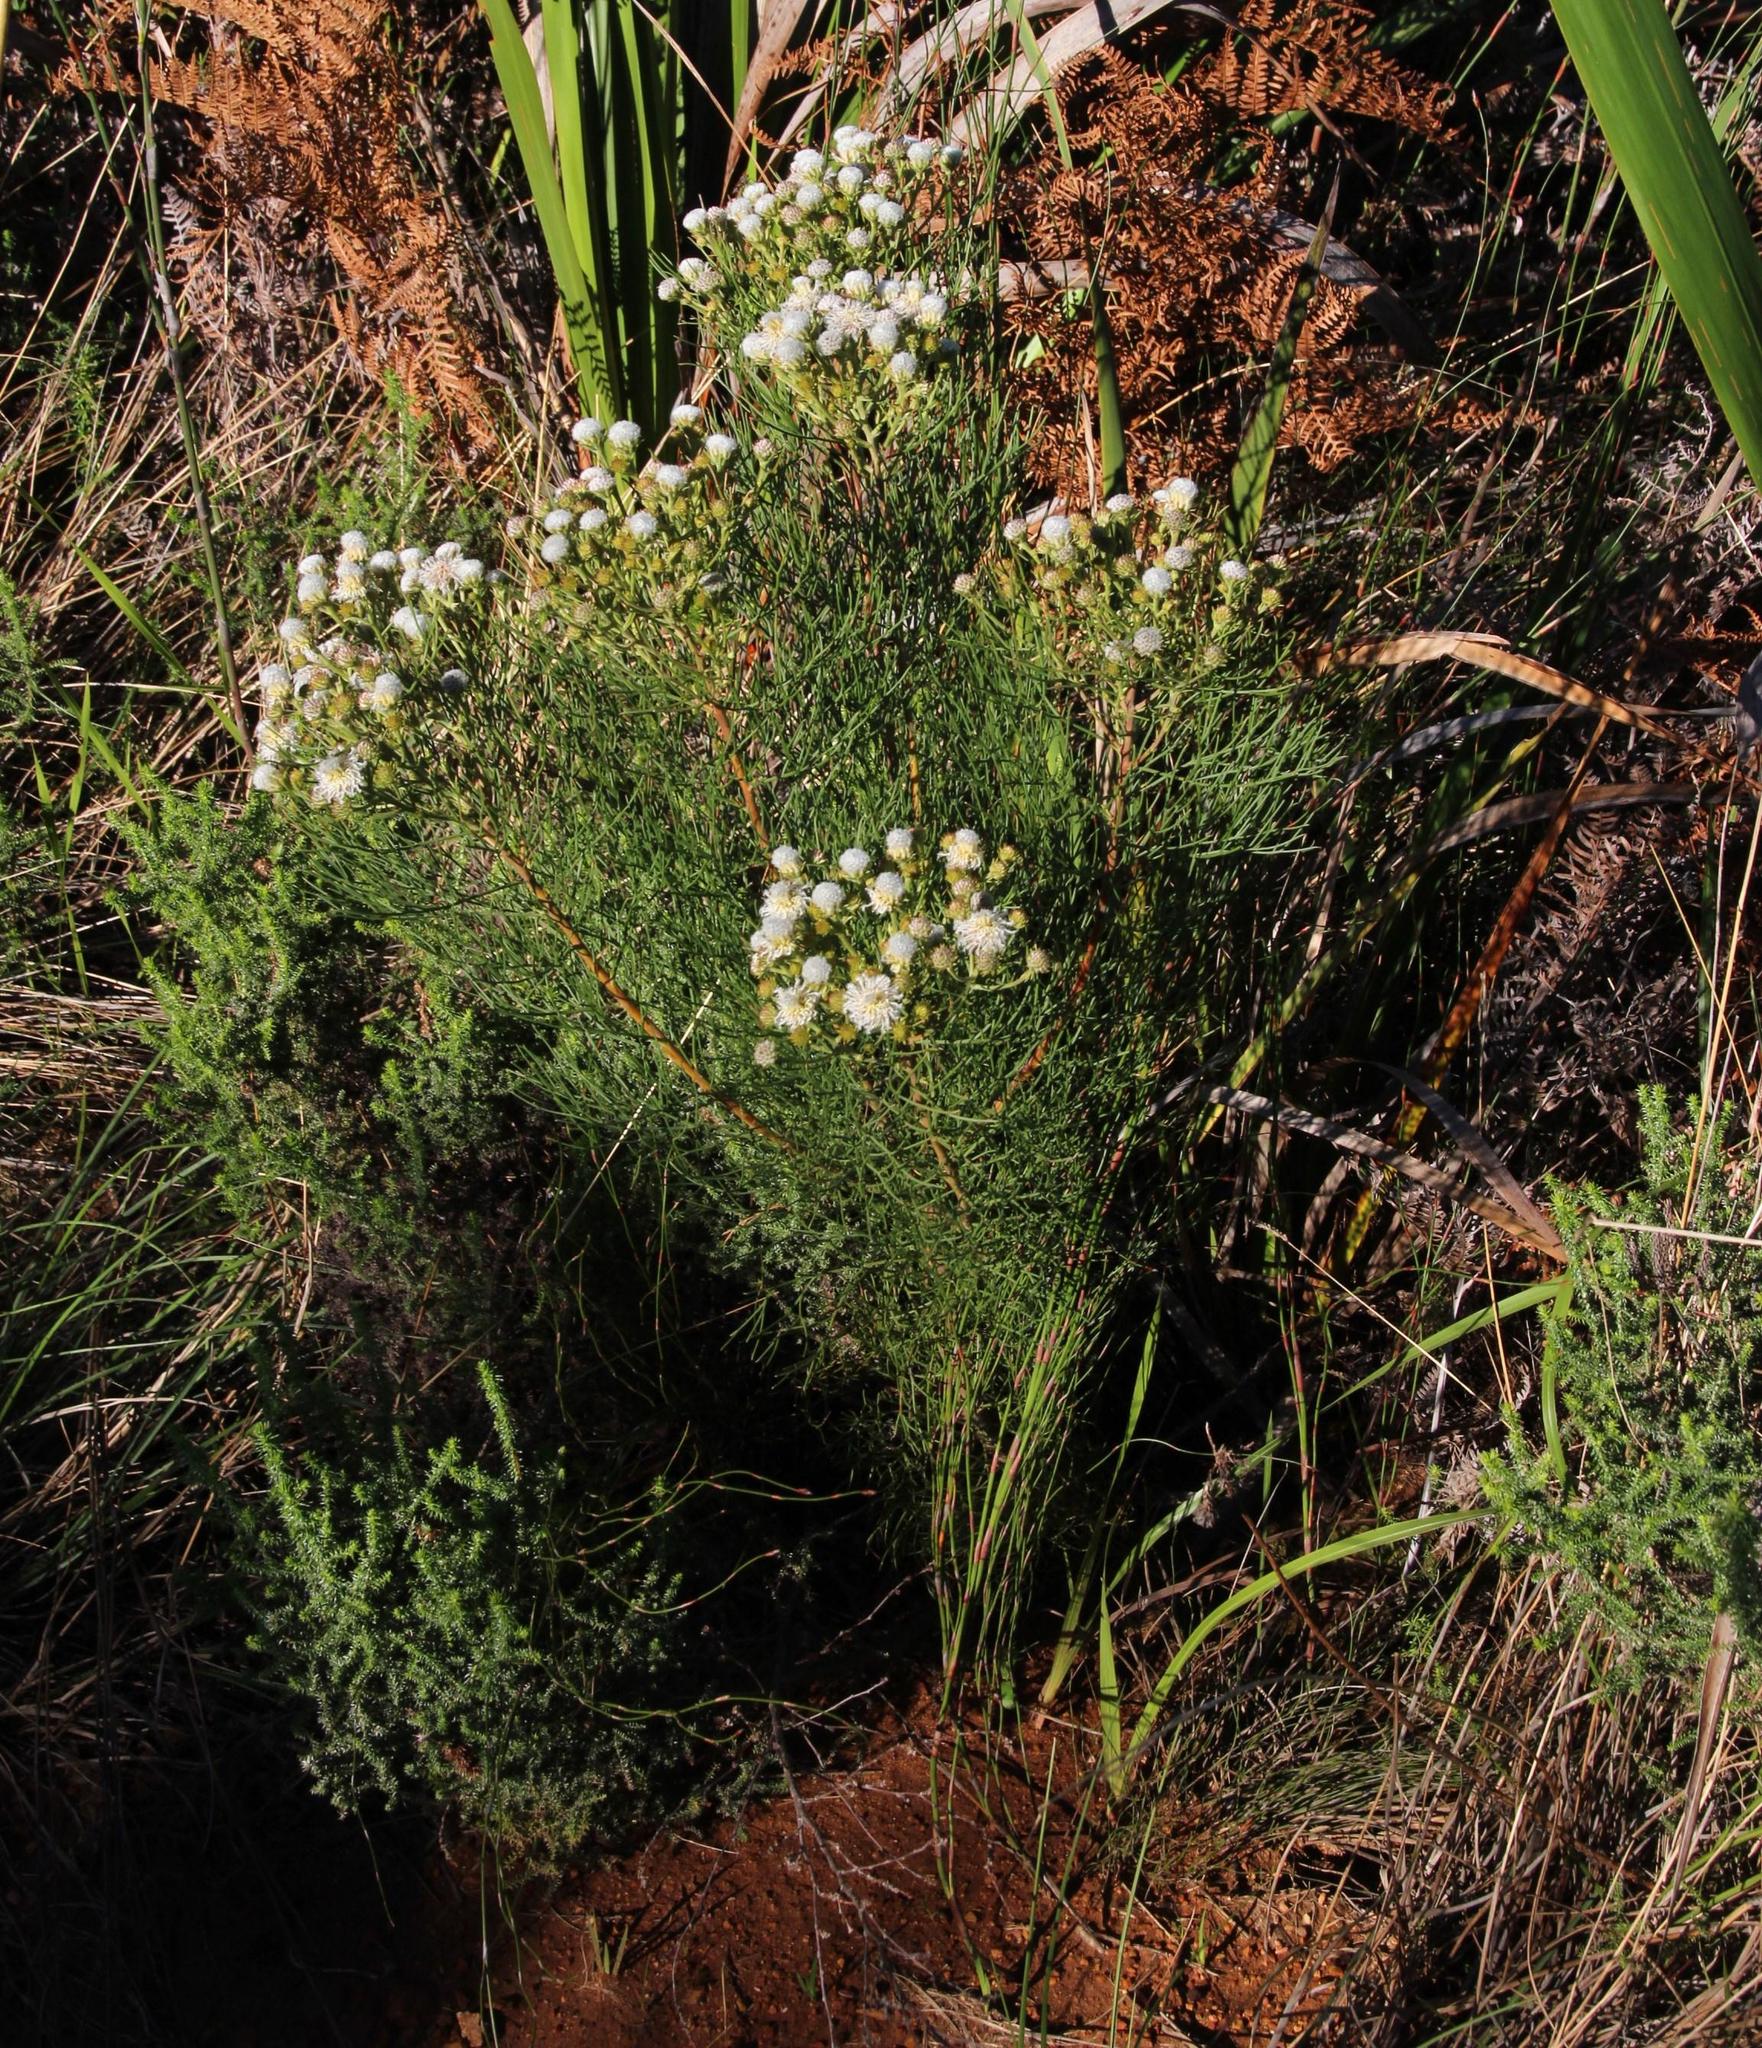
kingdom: Plantae
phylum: Tracheophyta
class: Magnoliopsida
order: Proteales
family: Proteaceae
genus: Serruria
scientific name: Serruria kraussii
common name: Snowball spiderhead
